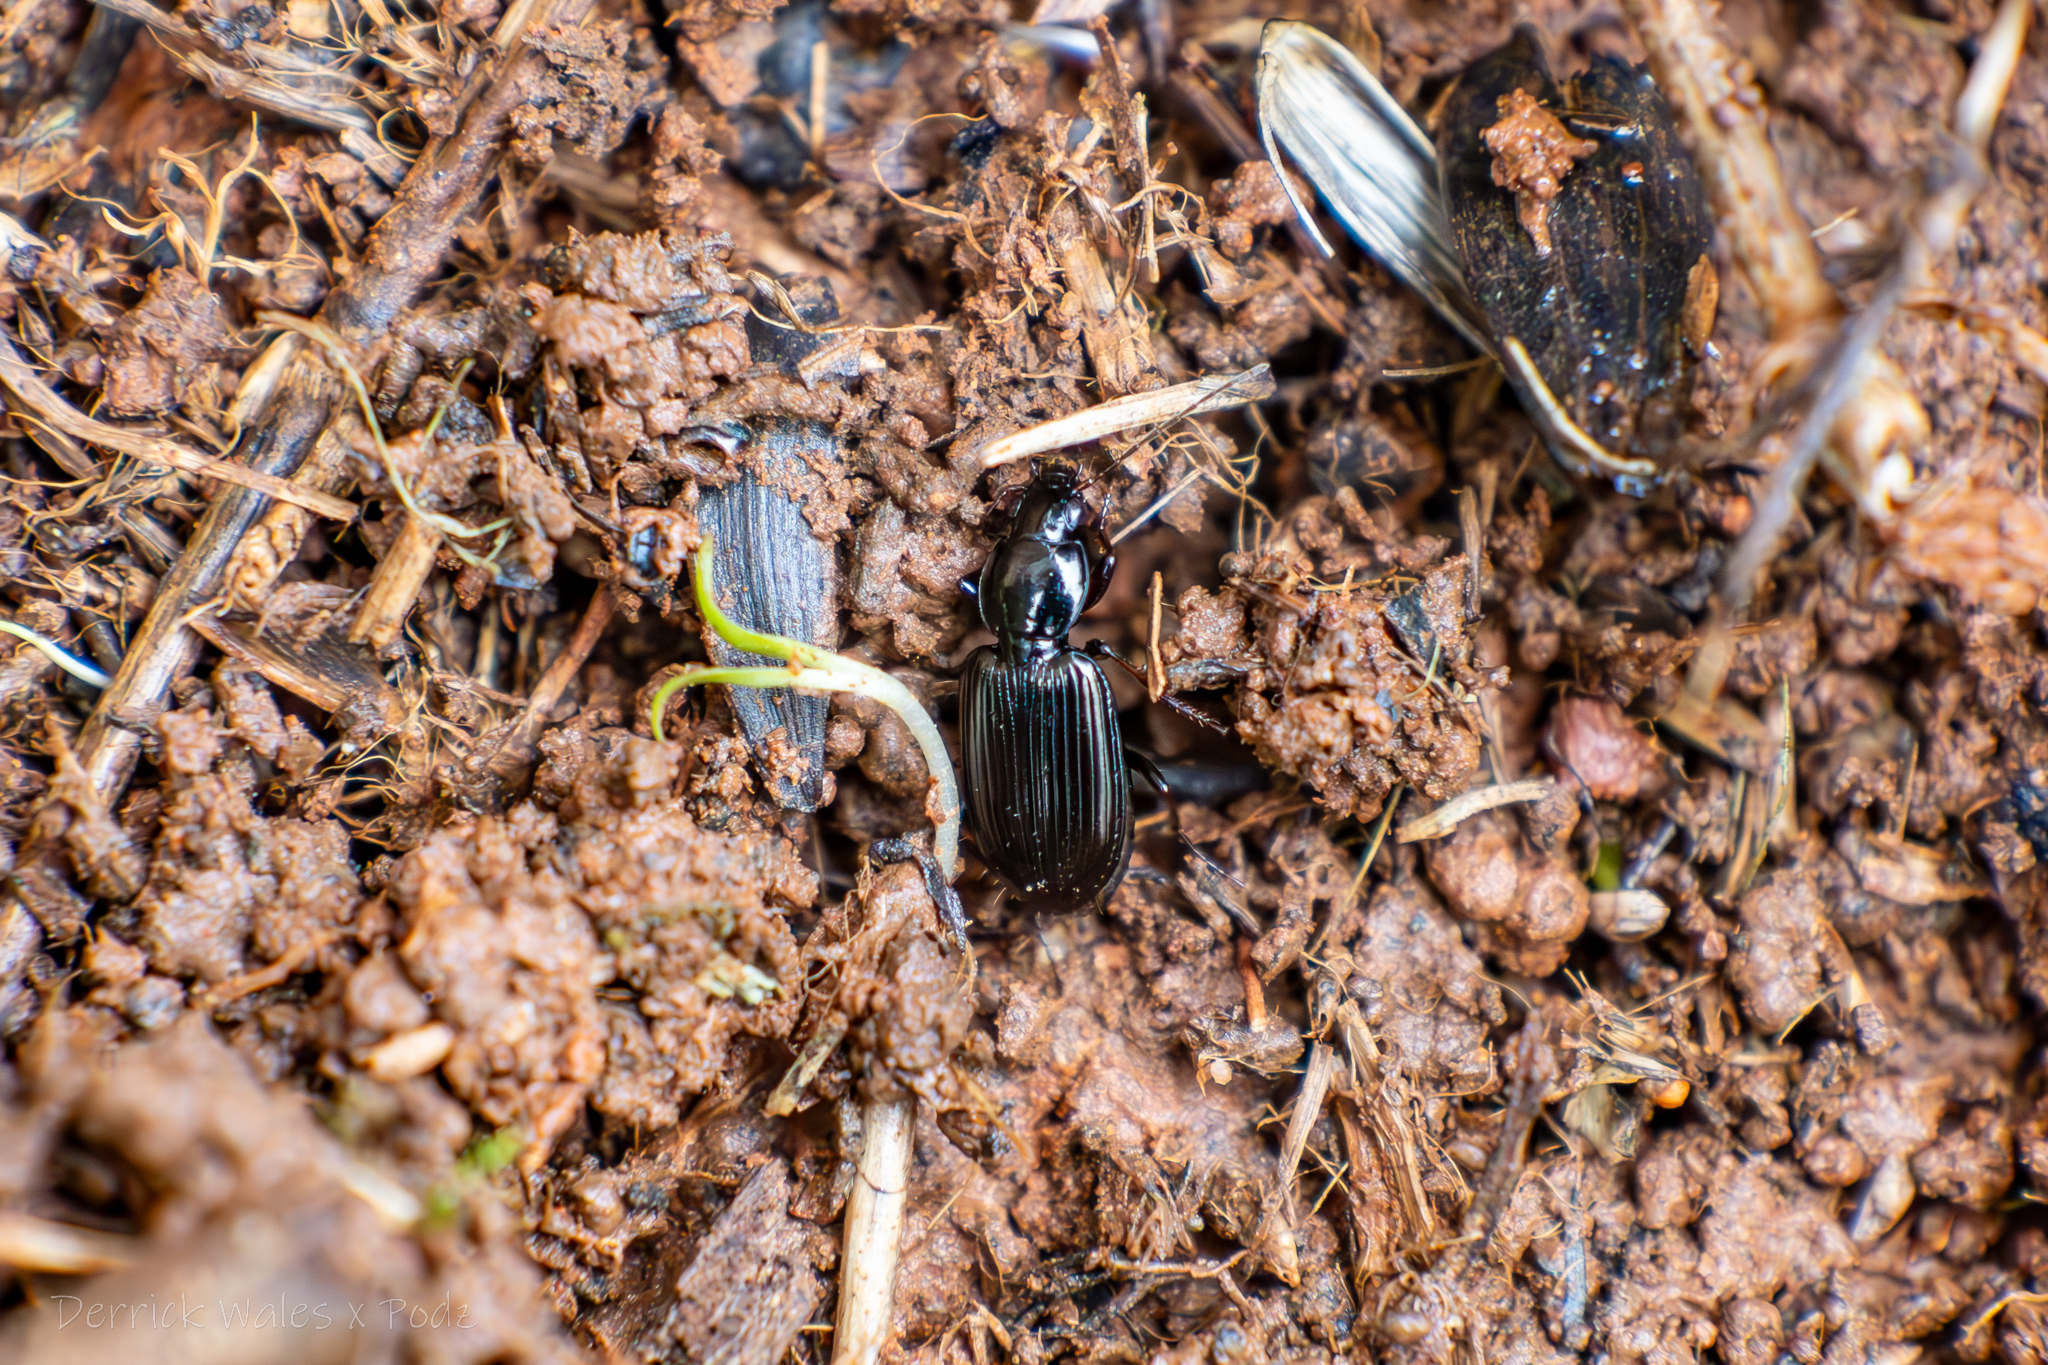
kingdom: Animalia
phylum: Arthropoda
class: Insecta
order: Coleoptera
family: Carabidae
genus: Agonum
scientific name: Agonum punctiforme
